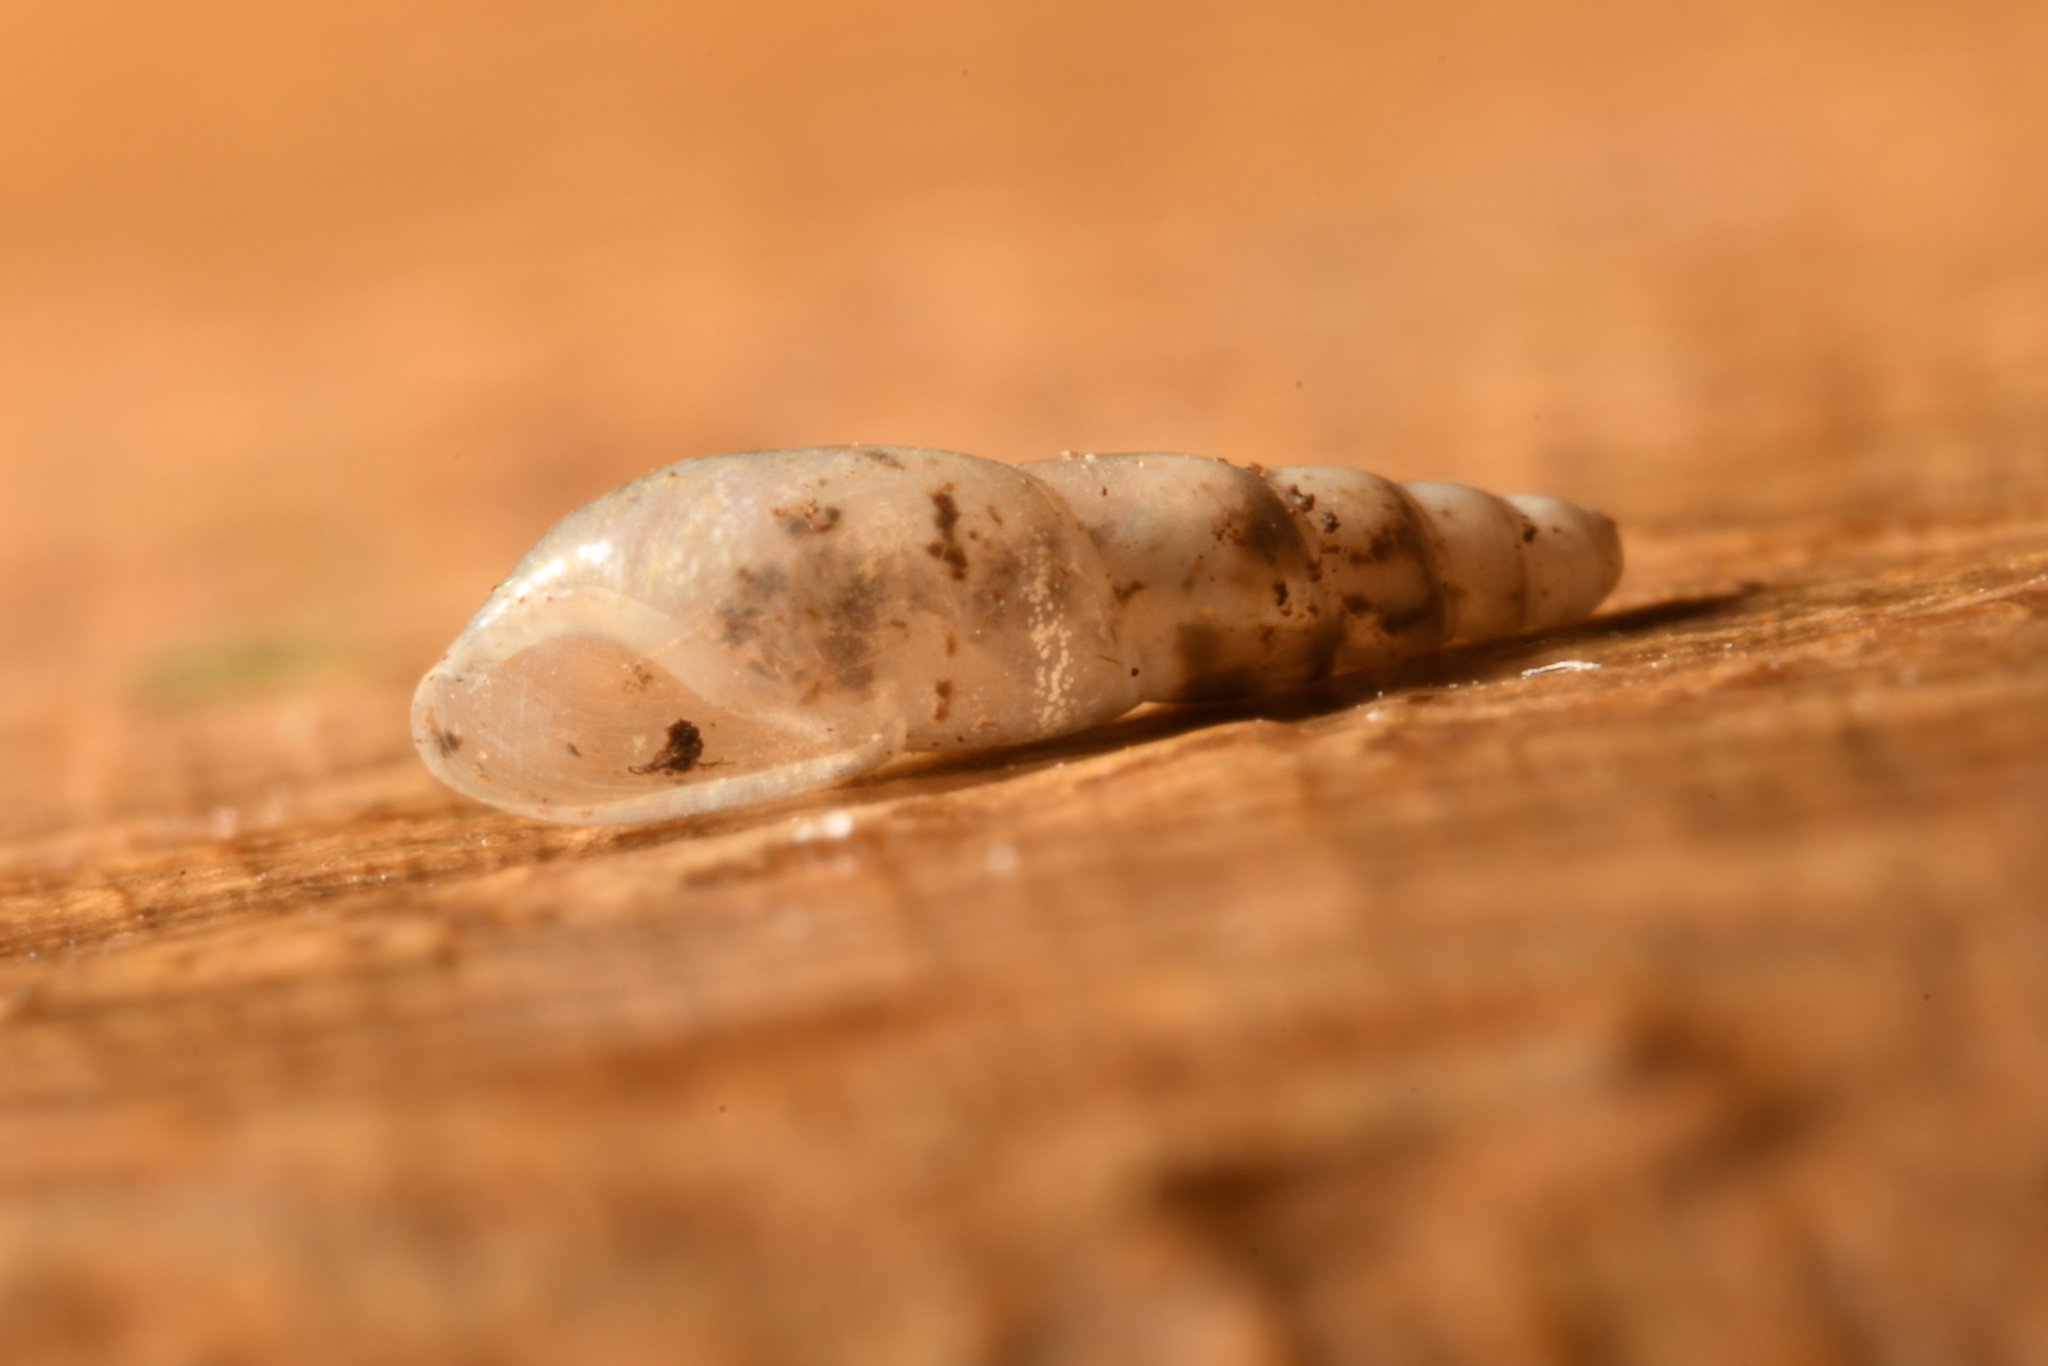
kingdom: Animalia
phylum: Mollusca
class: Gastropoda
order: Stylommatophora
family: Ferussaciidae
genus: Cecilioides
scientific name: Cecilioides acicula
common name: Blind awlsnail
